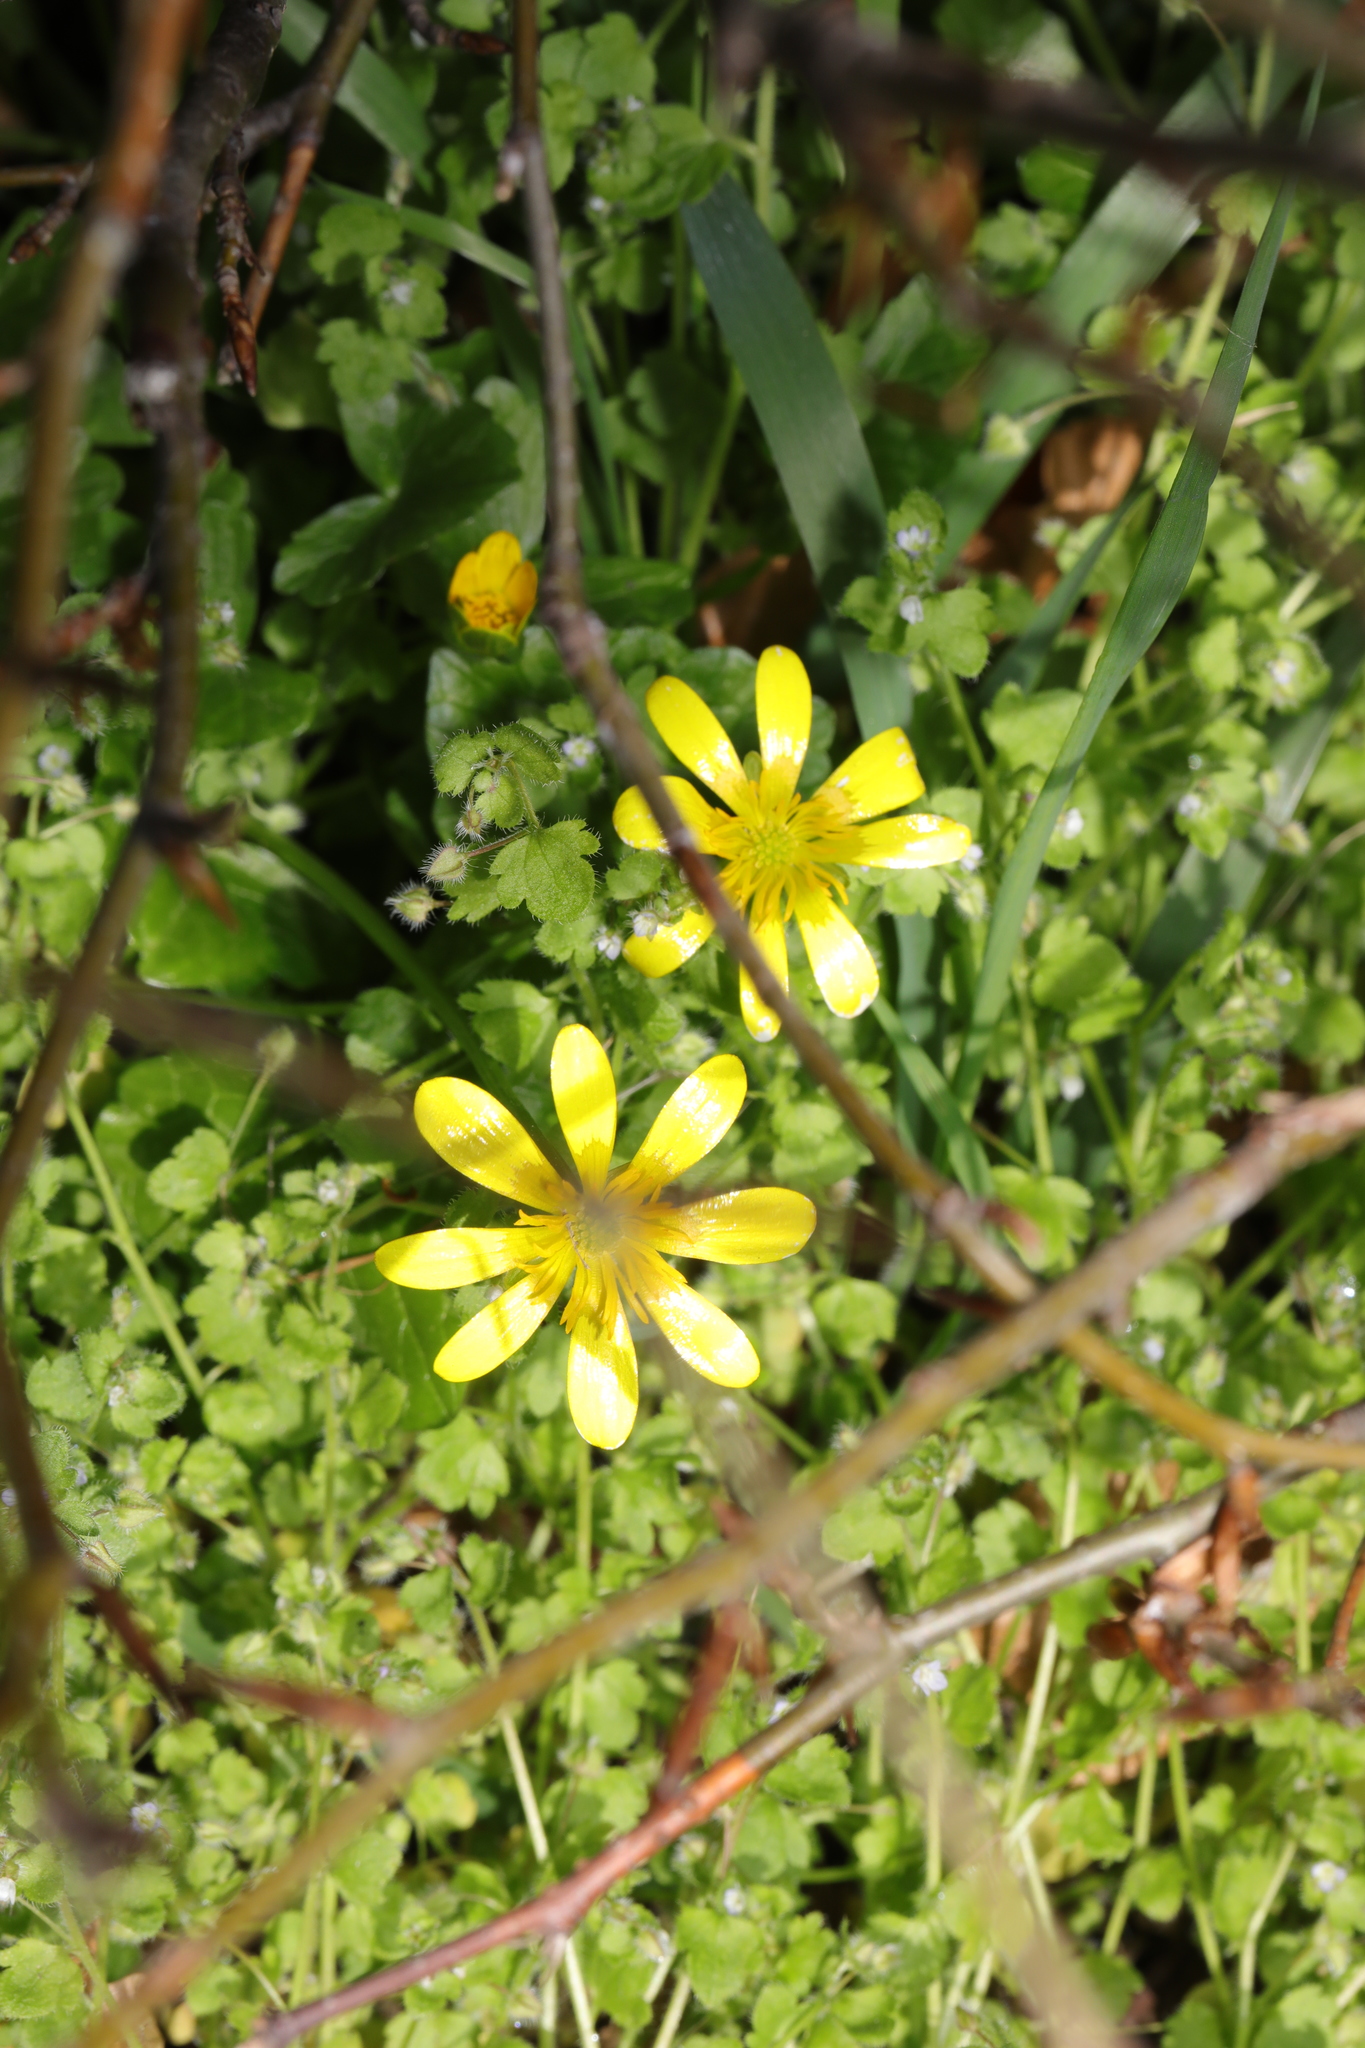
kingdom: Plantae
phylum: Tracheophyta
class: Magnoliopsida
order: Ranunculales
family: Ranunculaceae
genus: Ficaria
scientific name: Ficaria verna
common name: Lesser celandine
